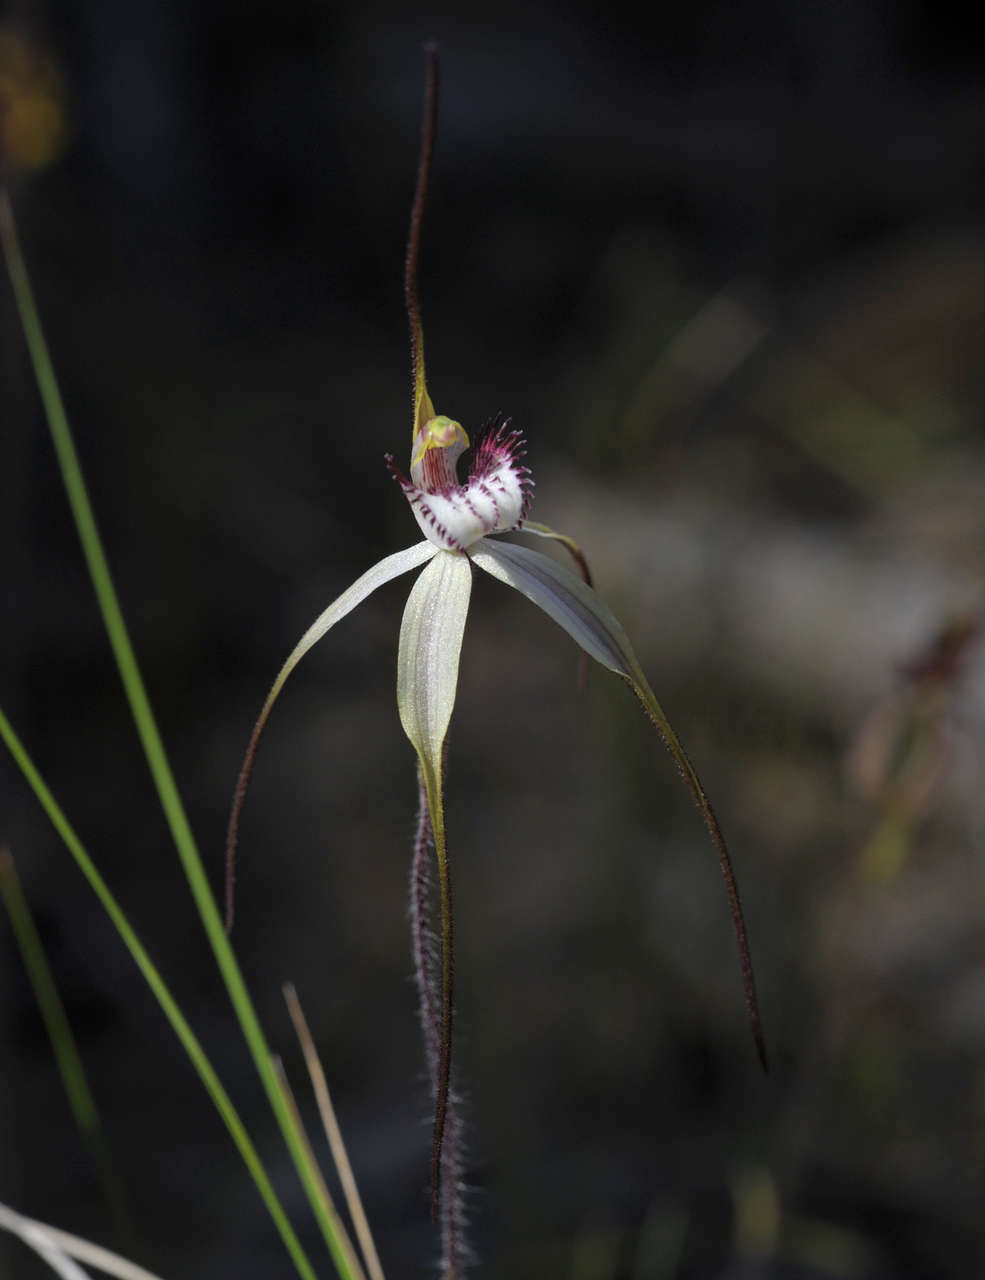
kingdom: Plantae
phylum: Tracheophyta
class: Liliopsida
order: Asparagales
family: Orchidaceae
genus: Caladenia
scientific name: Caladenia venusta
